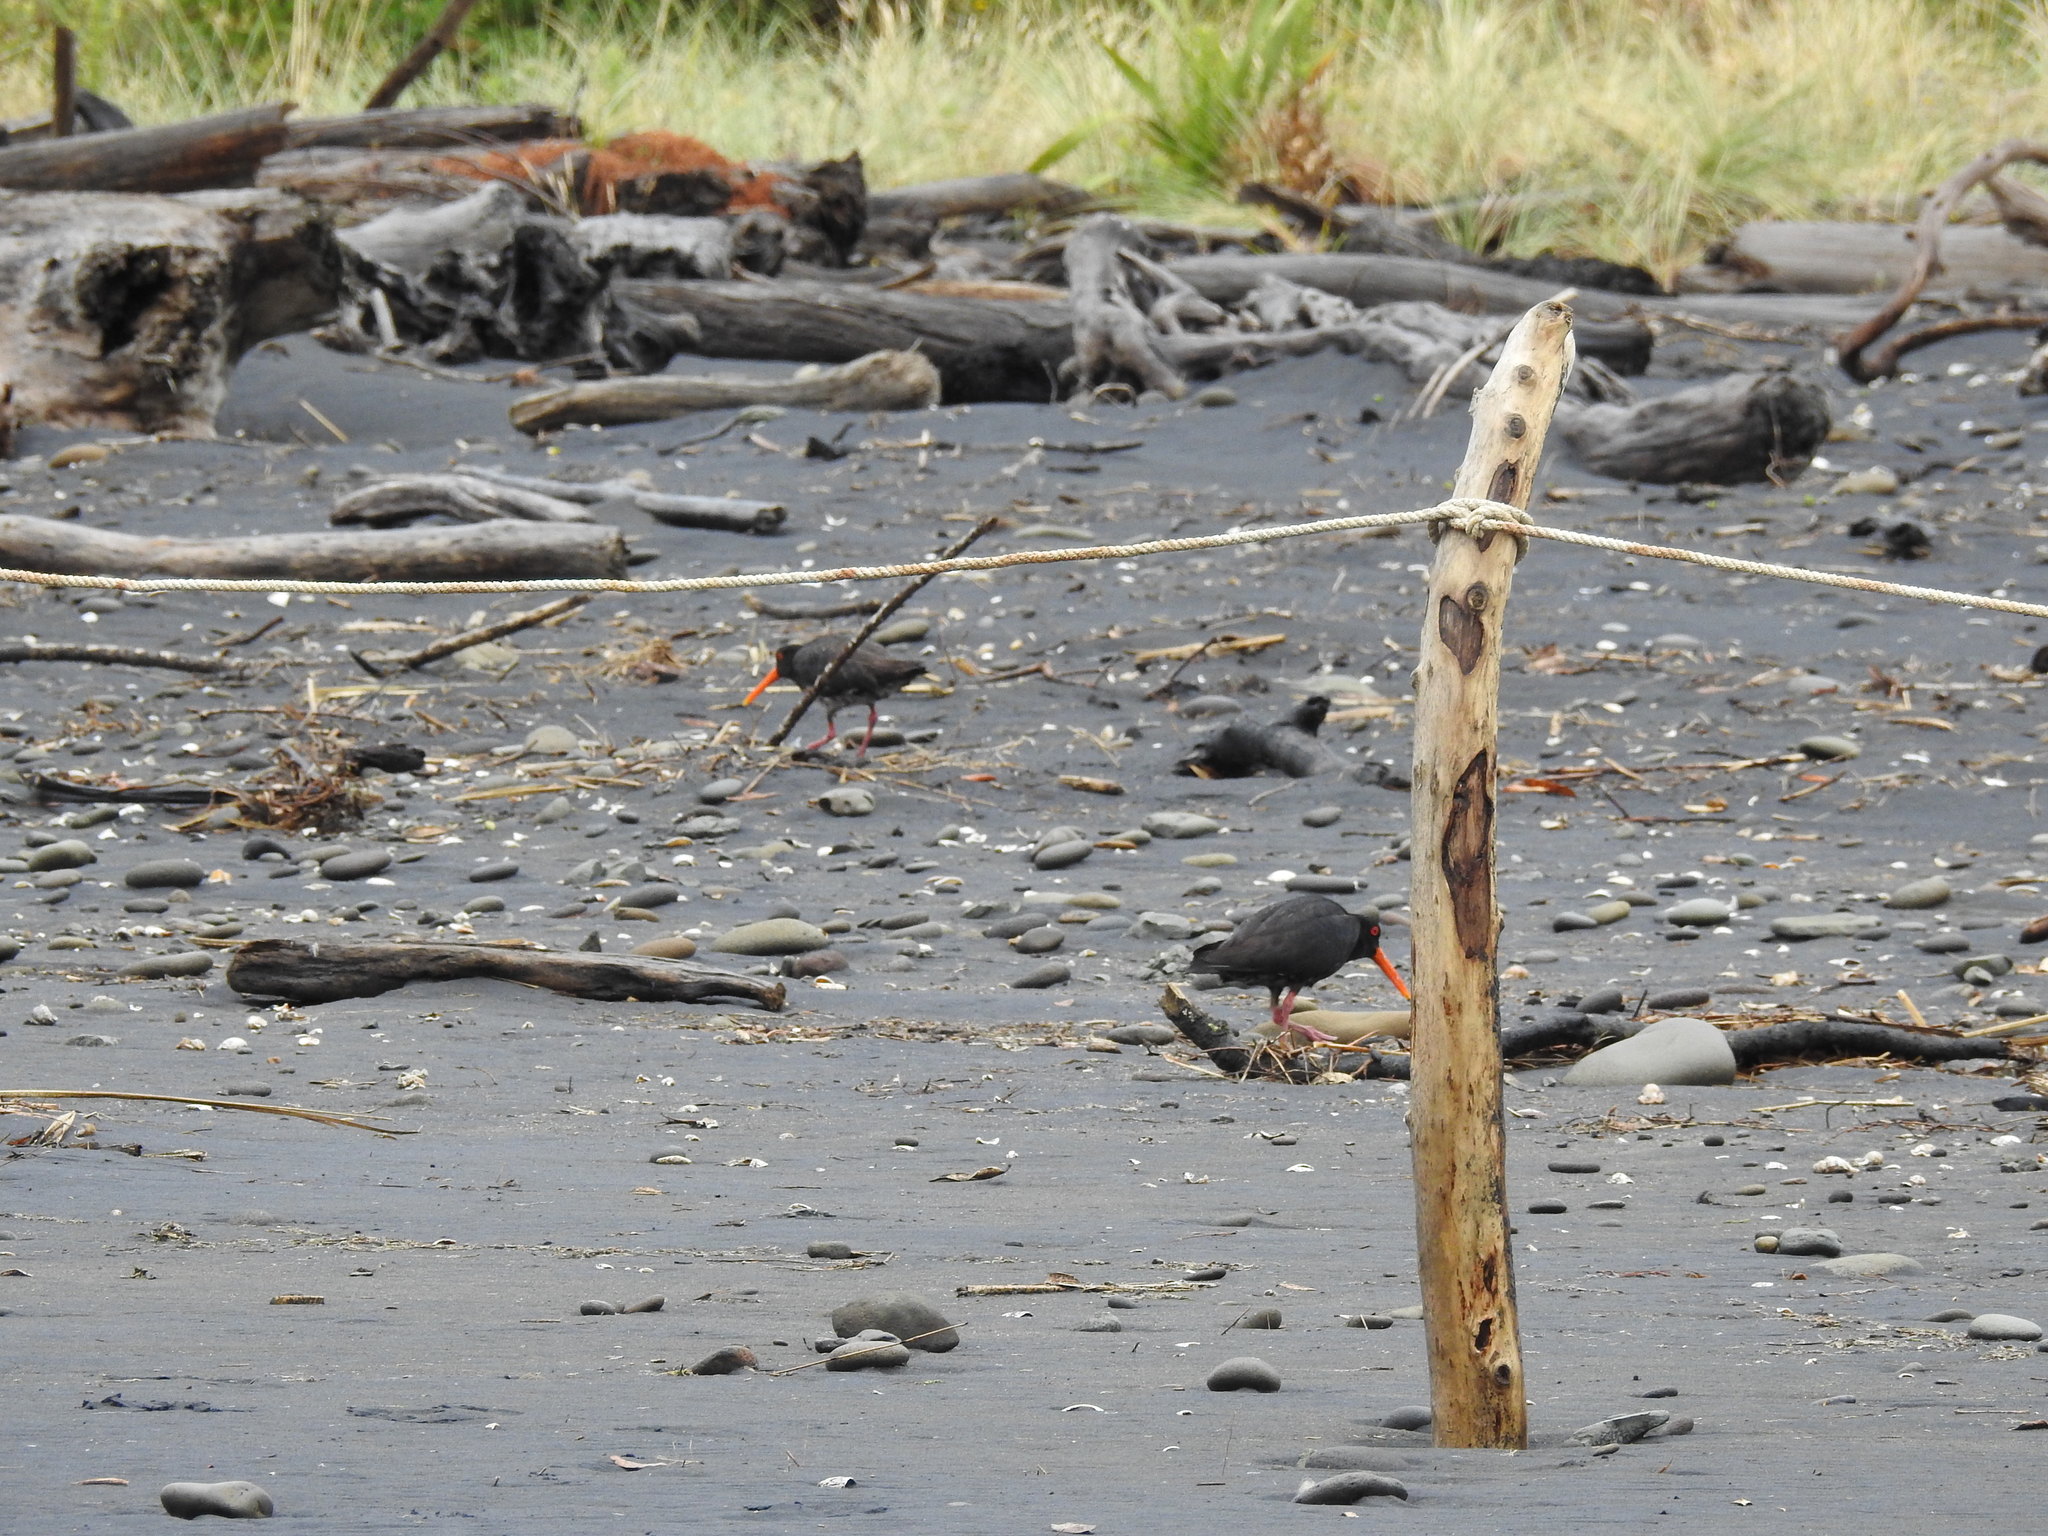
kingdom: Animalia
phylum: Chordata
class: Aves
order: Charadriiformes
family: Haematopodidae
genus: Haematopus
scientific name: Haematopus unicolor
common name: Variable oystercatcher
